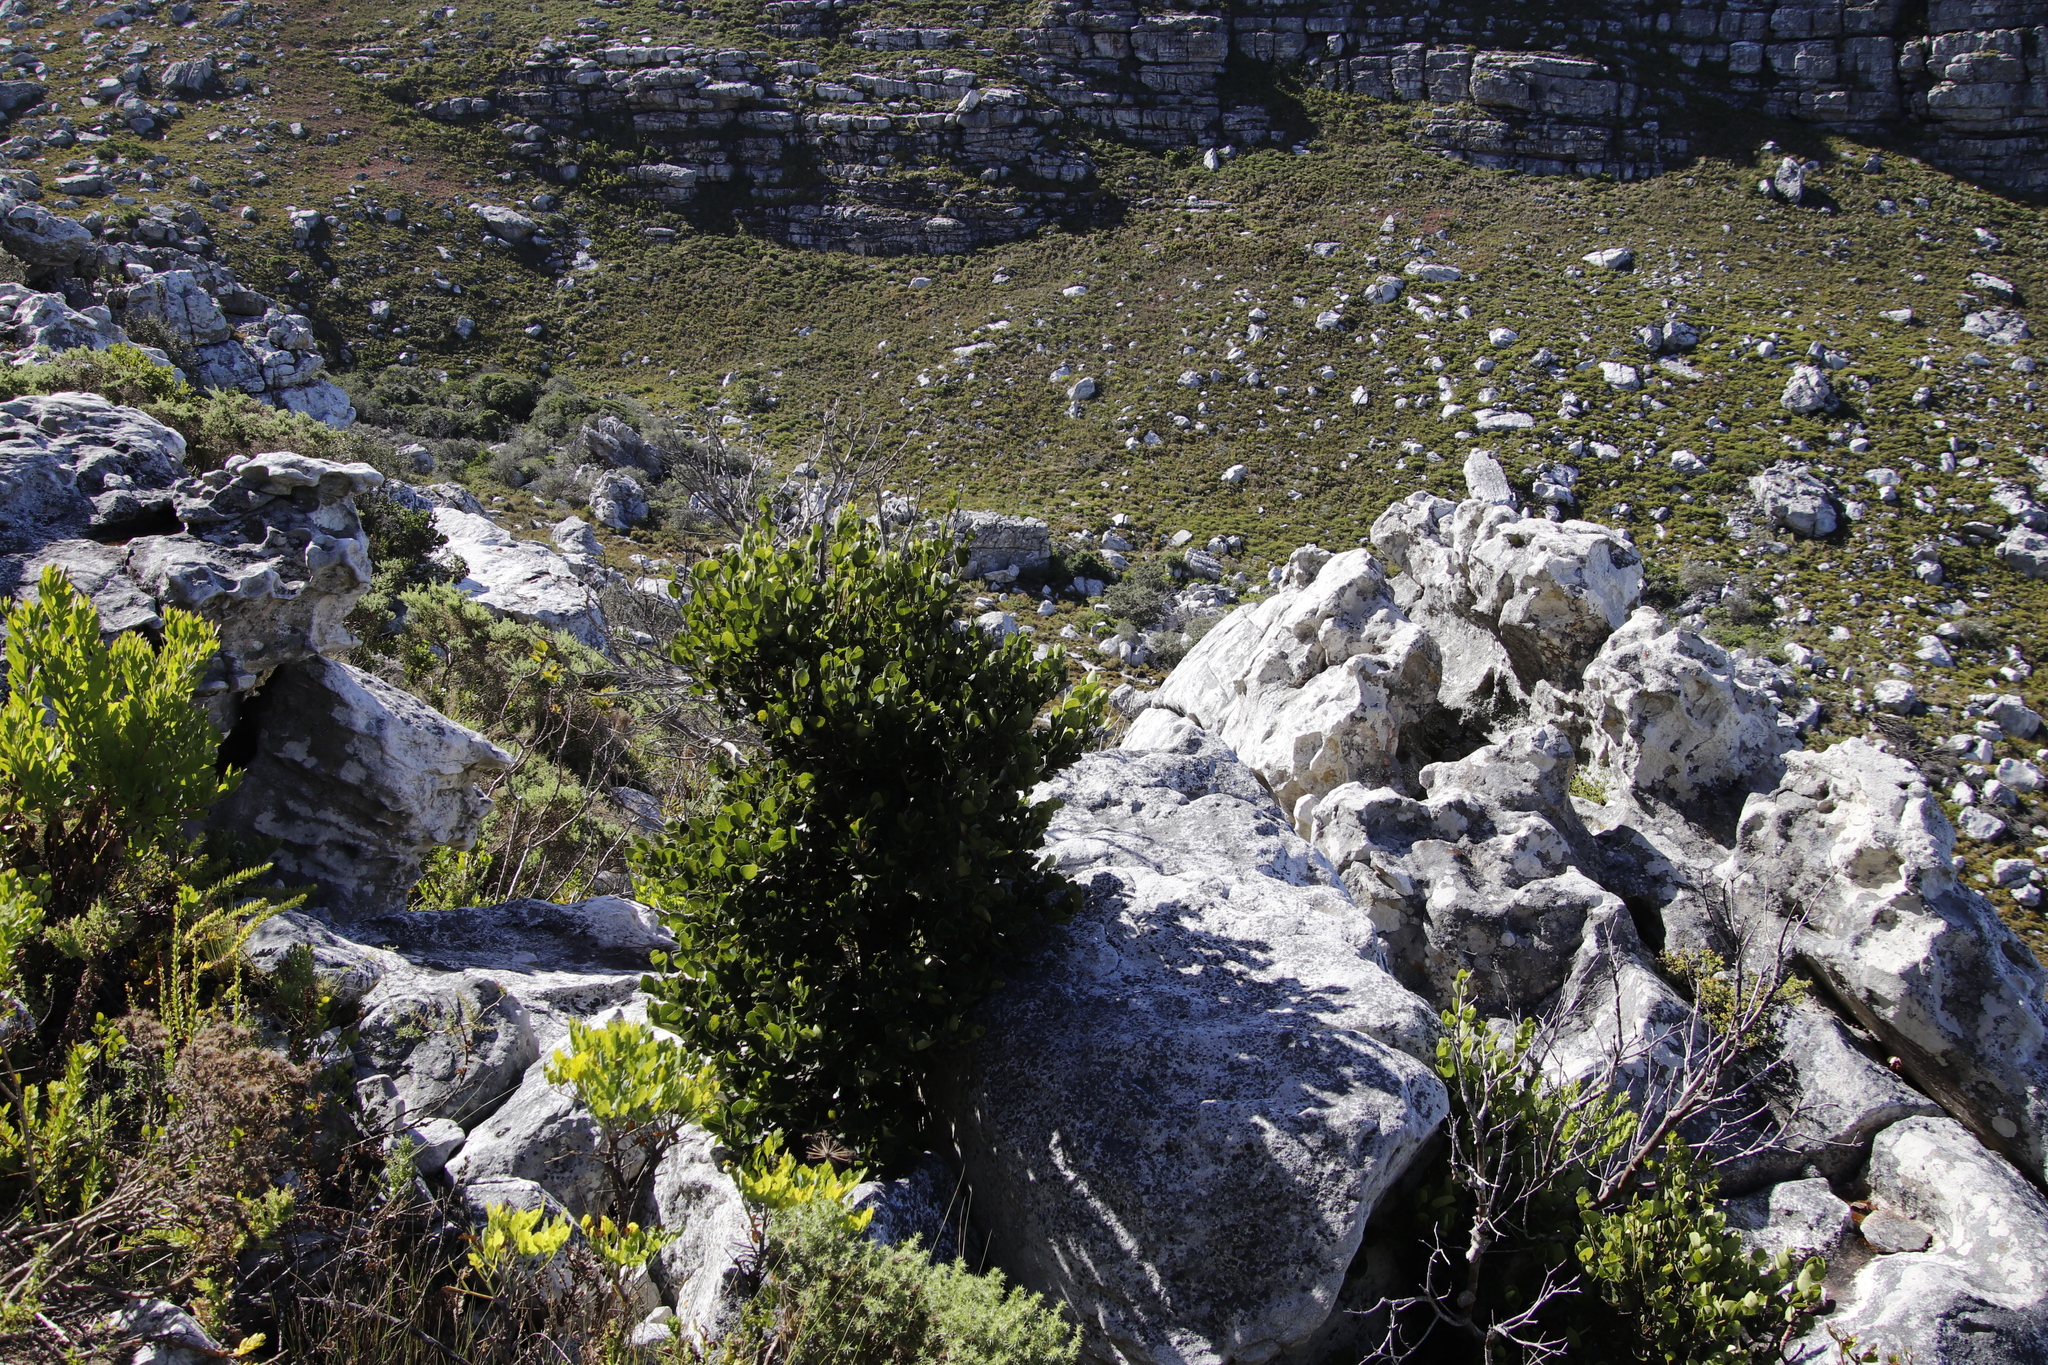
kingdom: Plantae
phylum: Tracheophyta
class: Magnoliopsida
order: Celastrales
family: Celastraceae
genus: Cassine
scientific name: Cassine peragua
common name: Cape saffron
